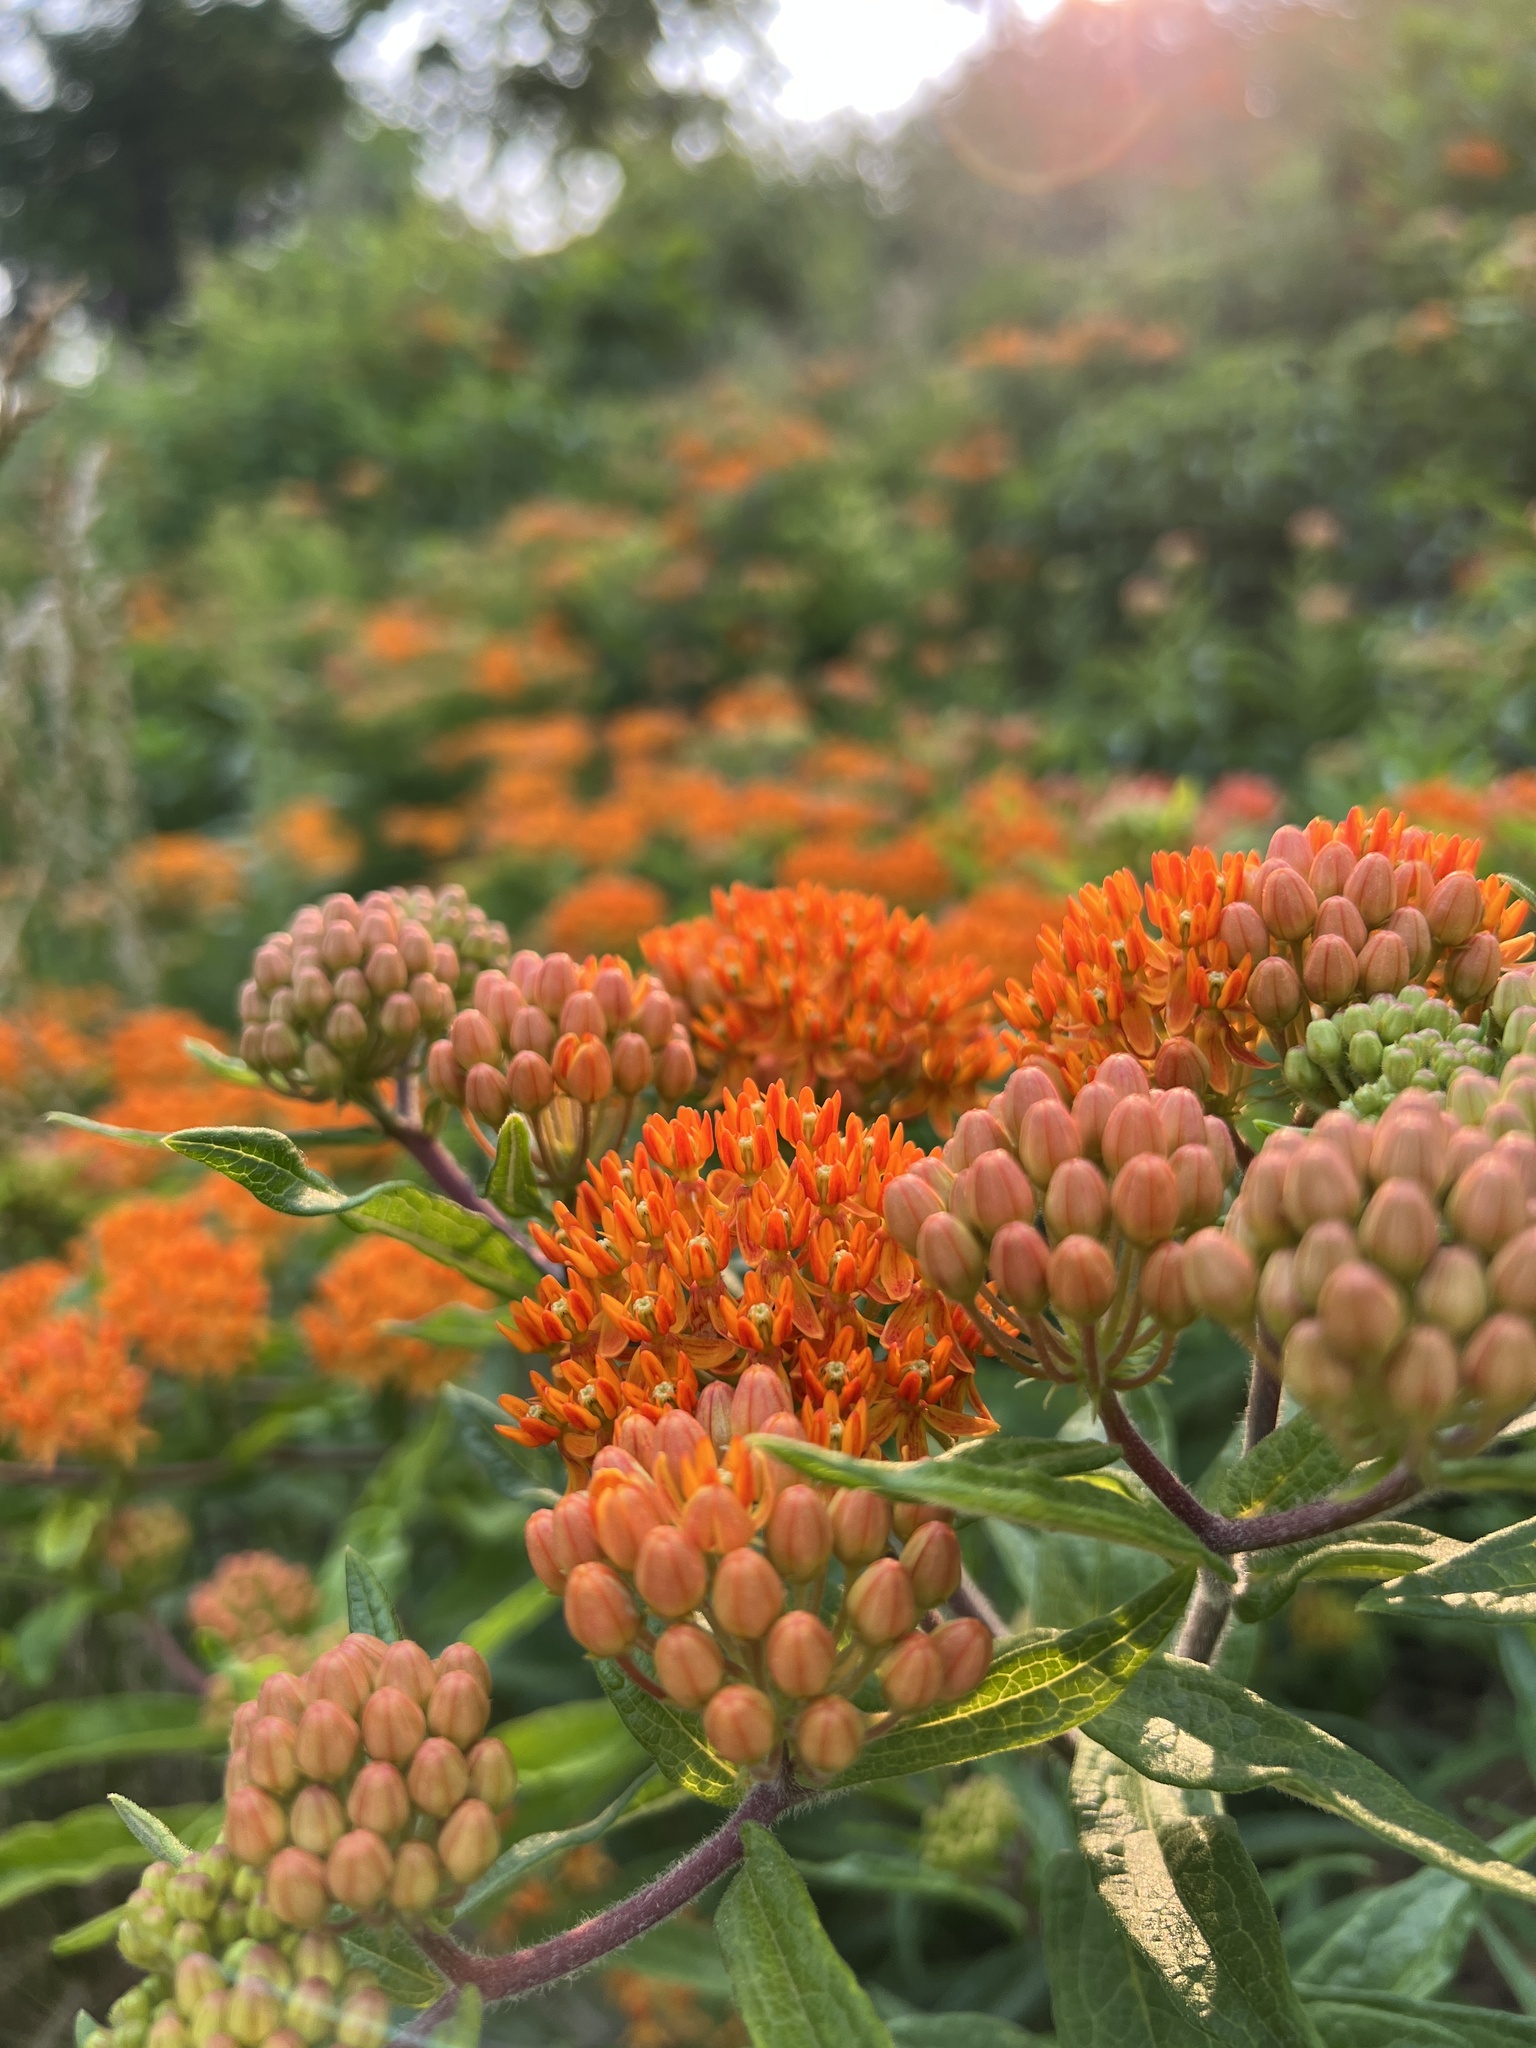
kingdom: Plantae
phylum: Tracheophyta
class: Magnoliopsida
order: Gentianales
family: Apocynaceae
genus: Asclepias
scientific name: Asclepias tuberosa
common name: Butterfly milkweed
